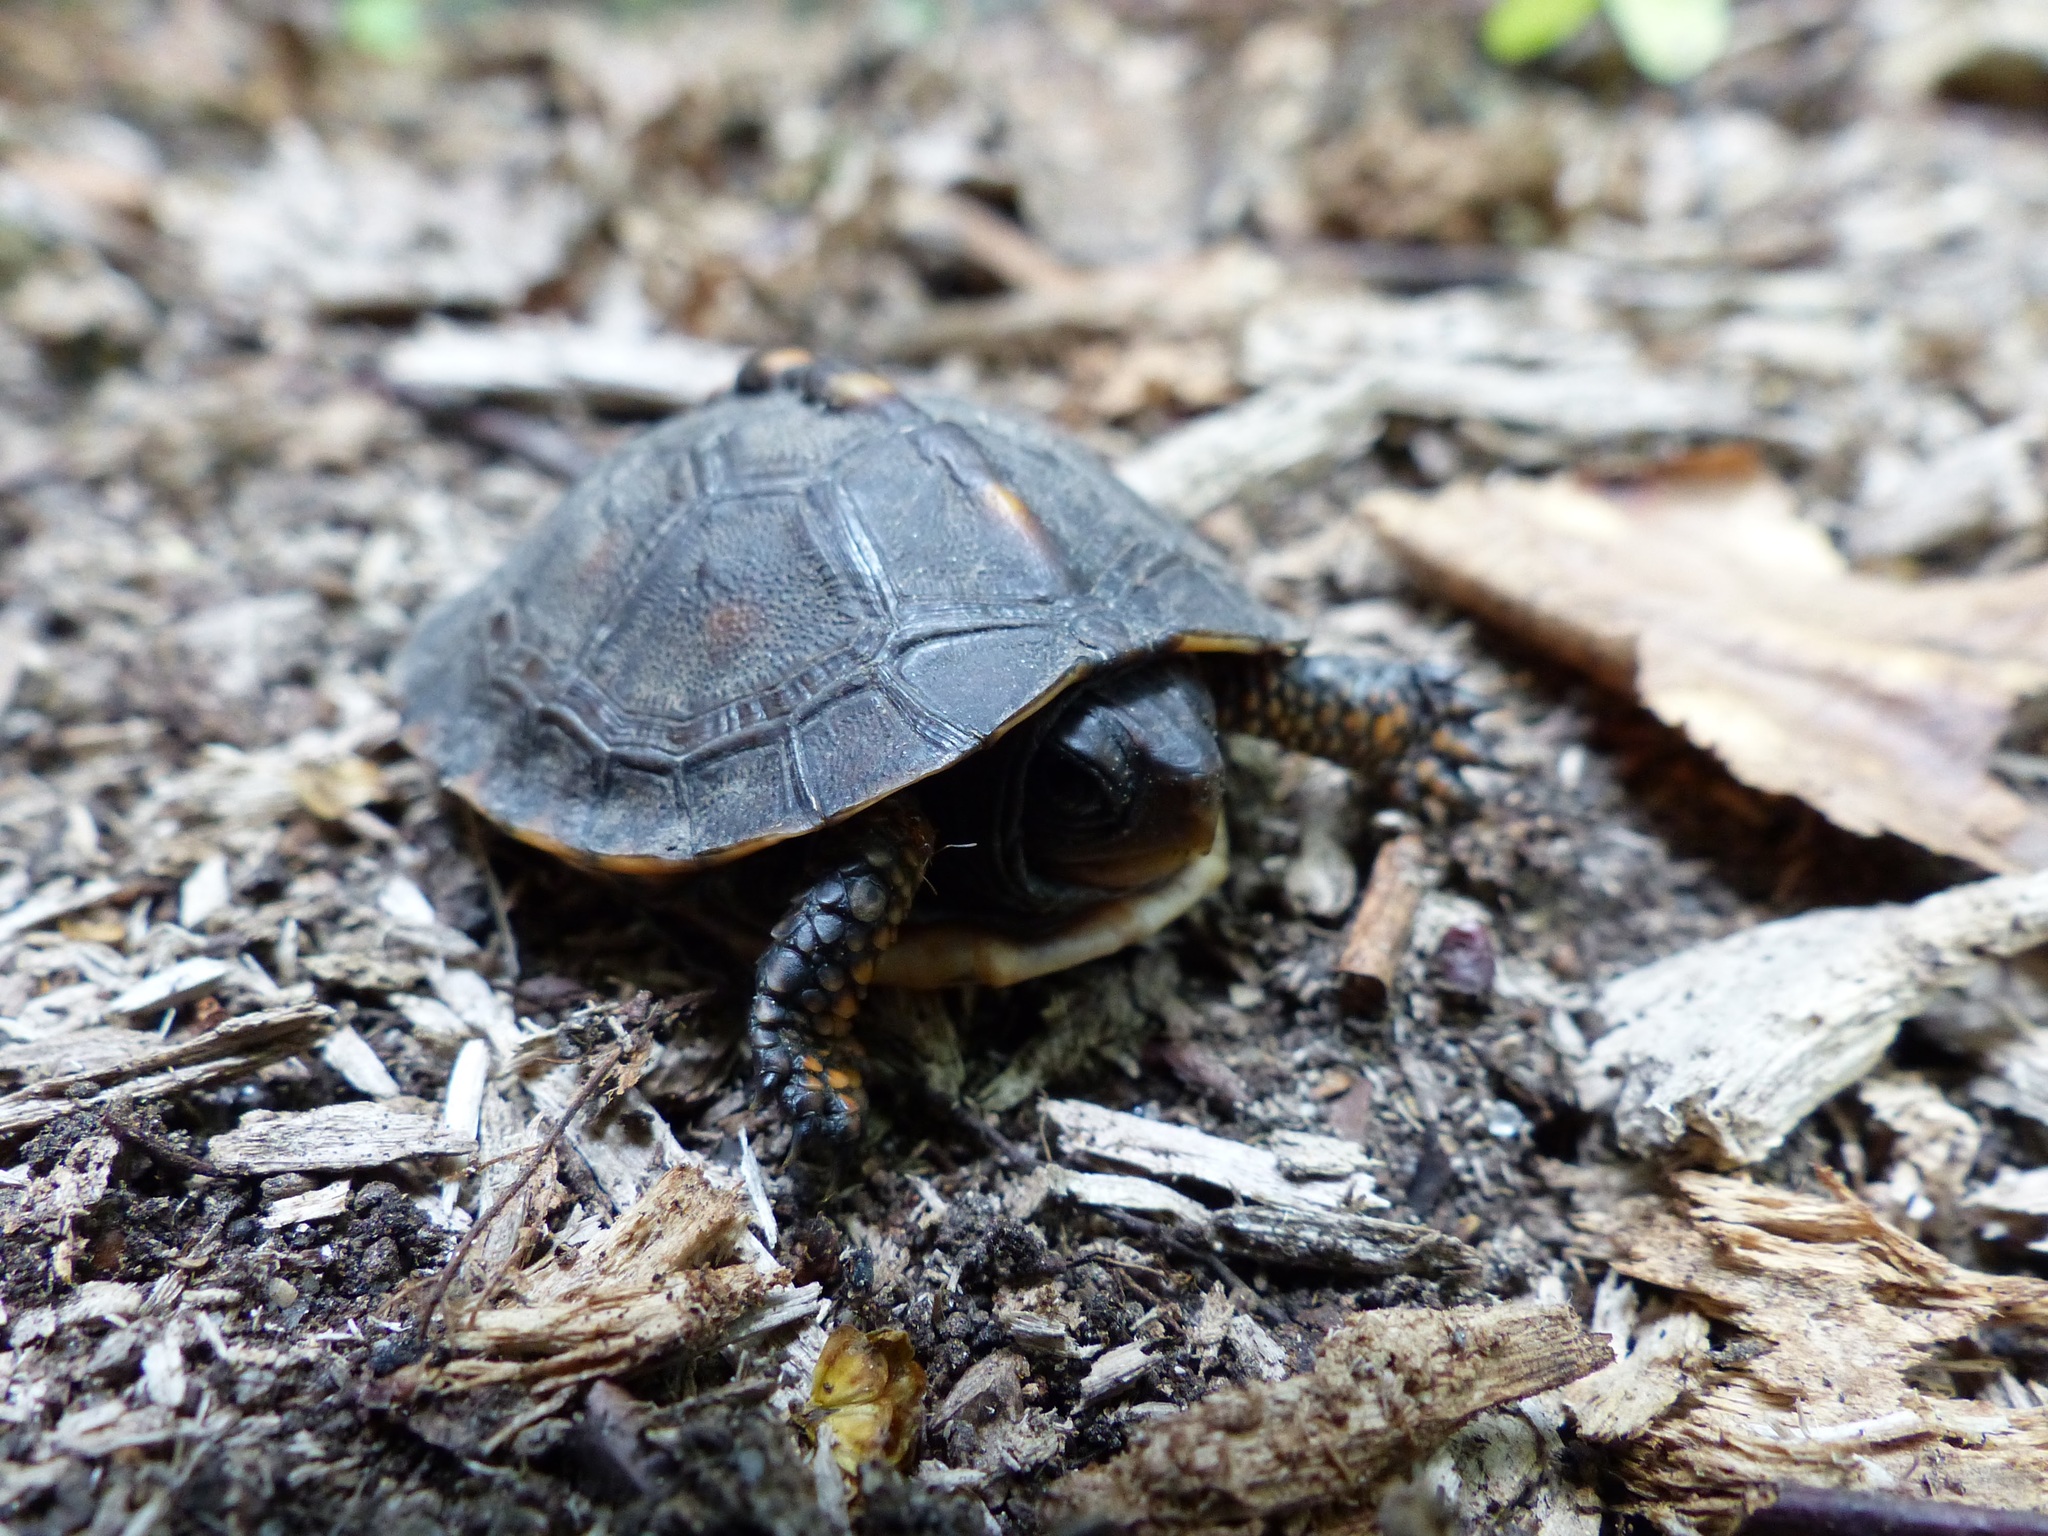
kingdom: Animalia
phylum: Chordata
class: Testudines
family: Emydidae
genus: Terrapene
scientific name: Terrapene carolina
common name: Common box turtle
